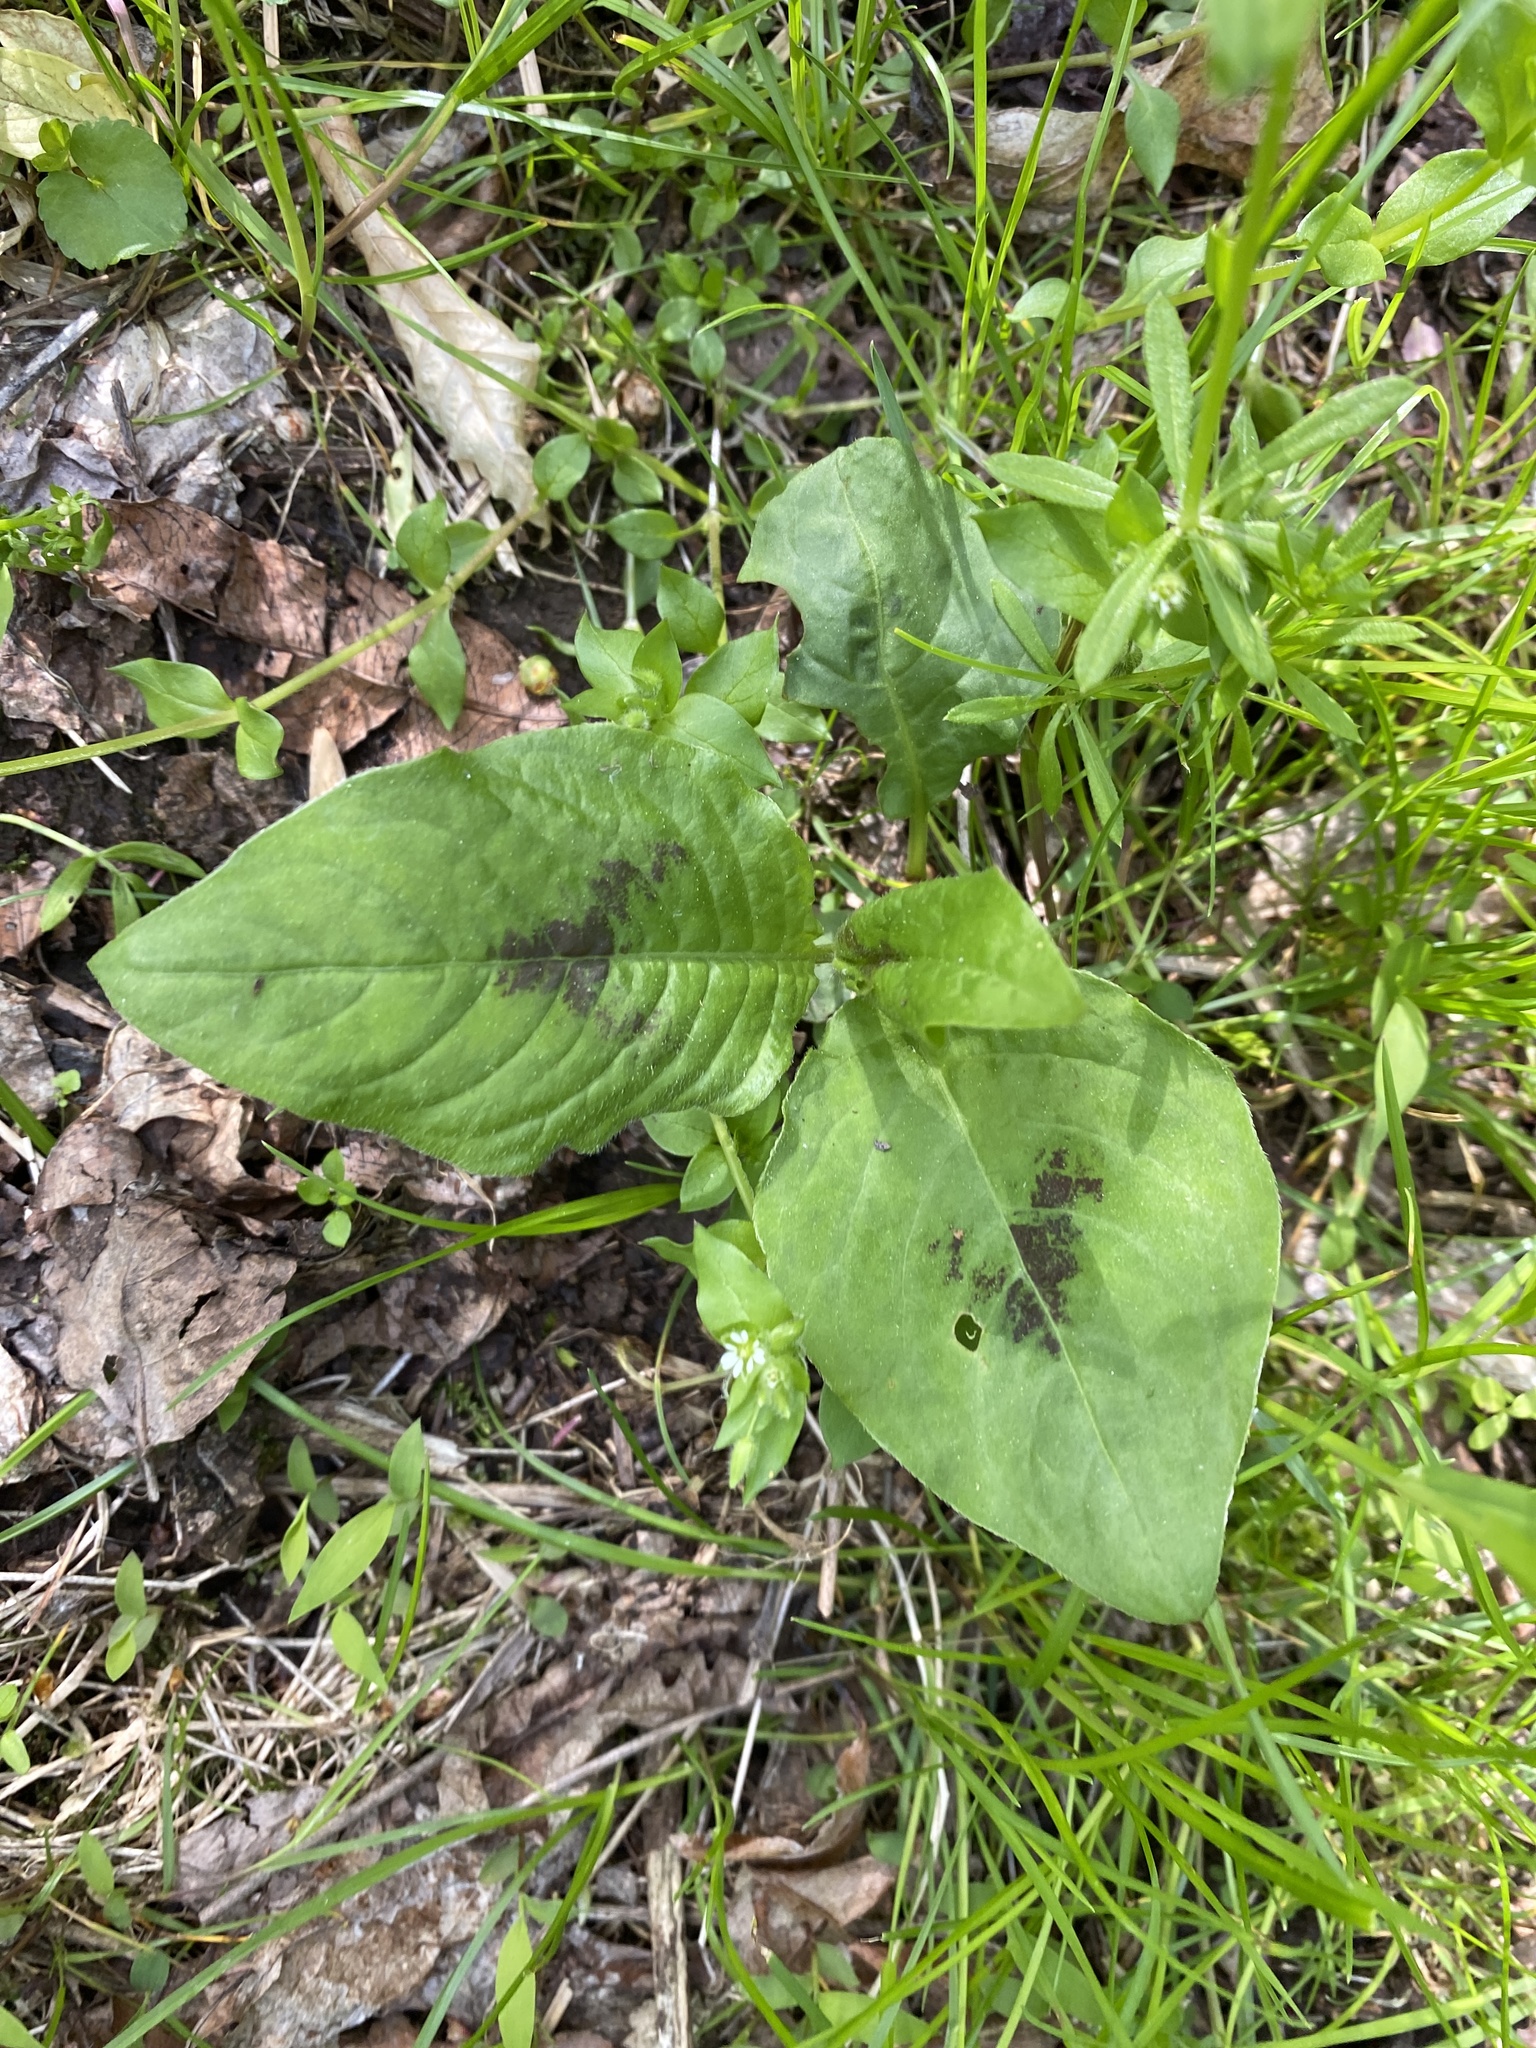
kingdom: Plantae
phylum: Tracheophyta
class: Magnoliopsida
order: Caryophyllales
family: Polygonaceae
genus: Persicaria
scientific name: Persicaria virginiana
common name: Jumpseed
